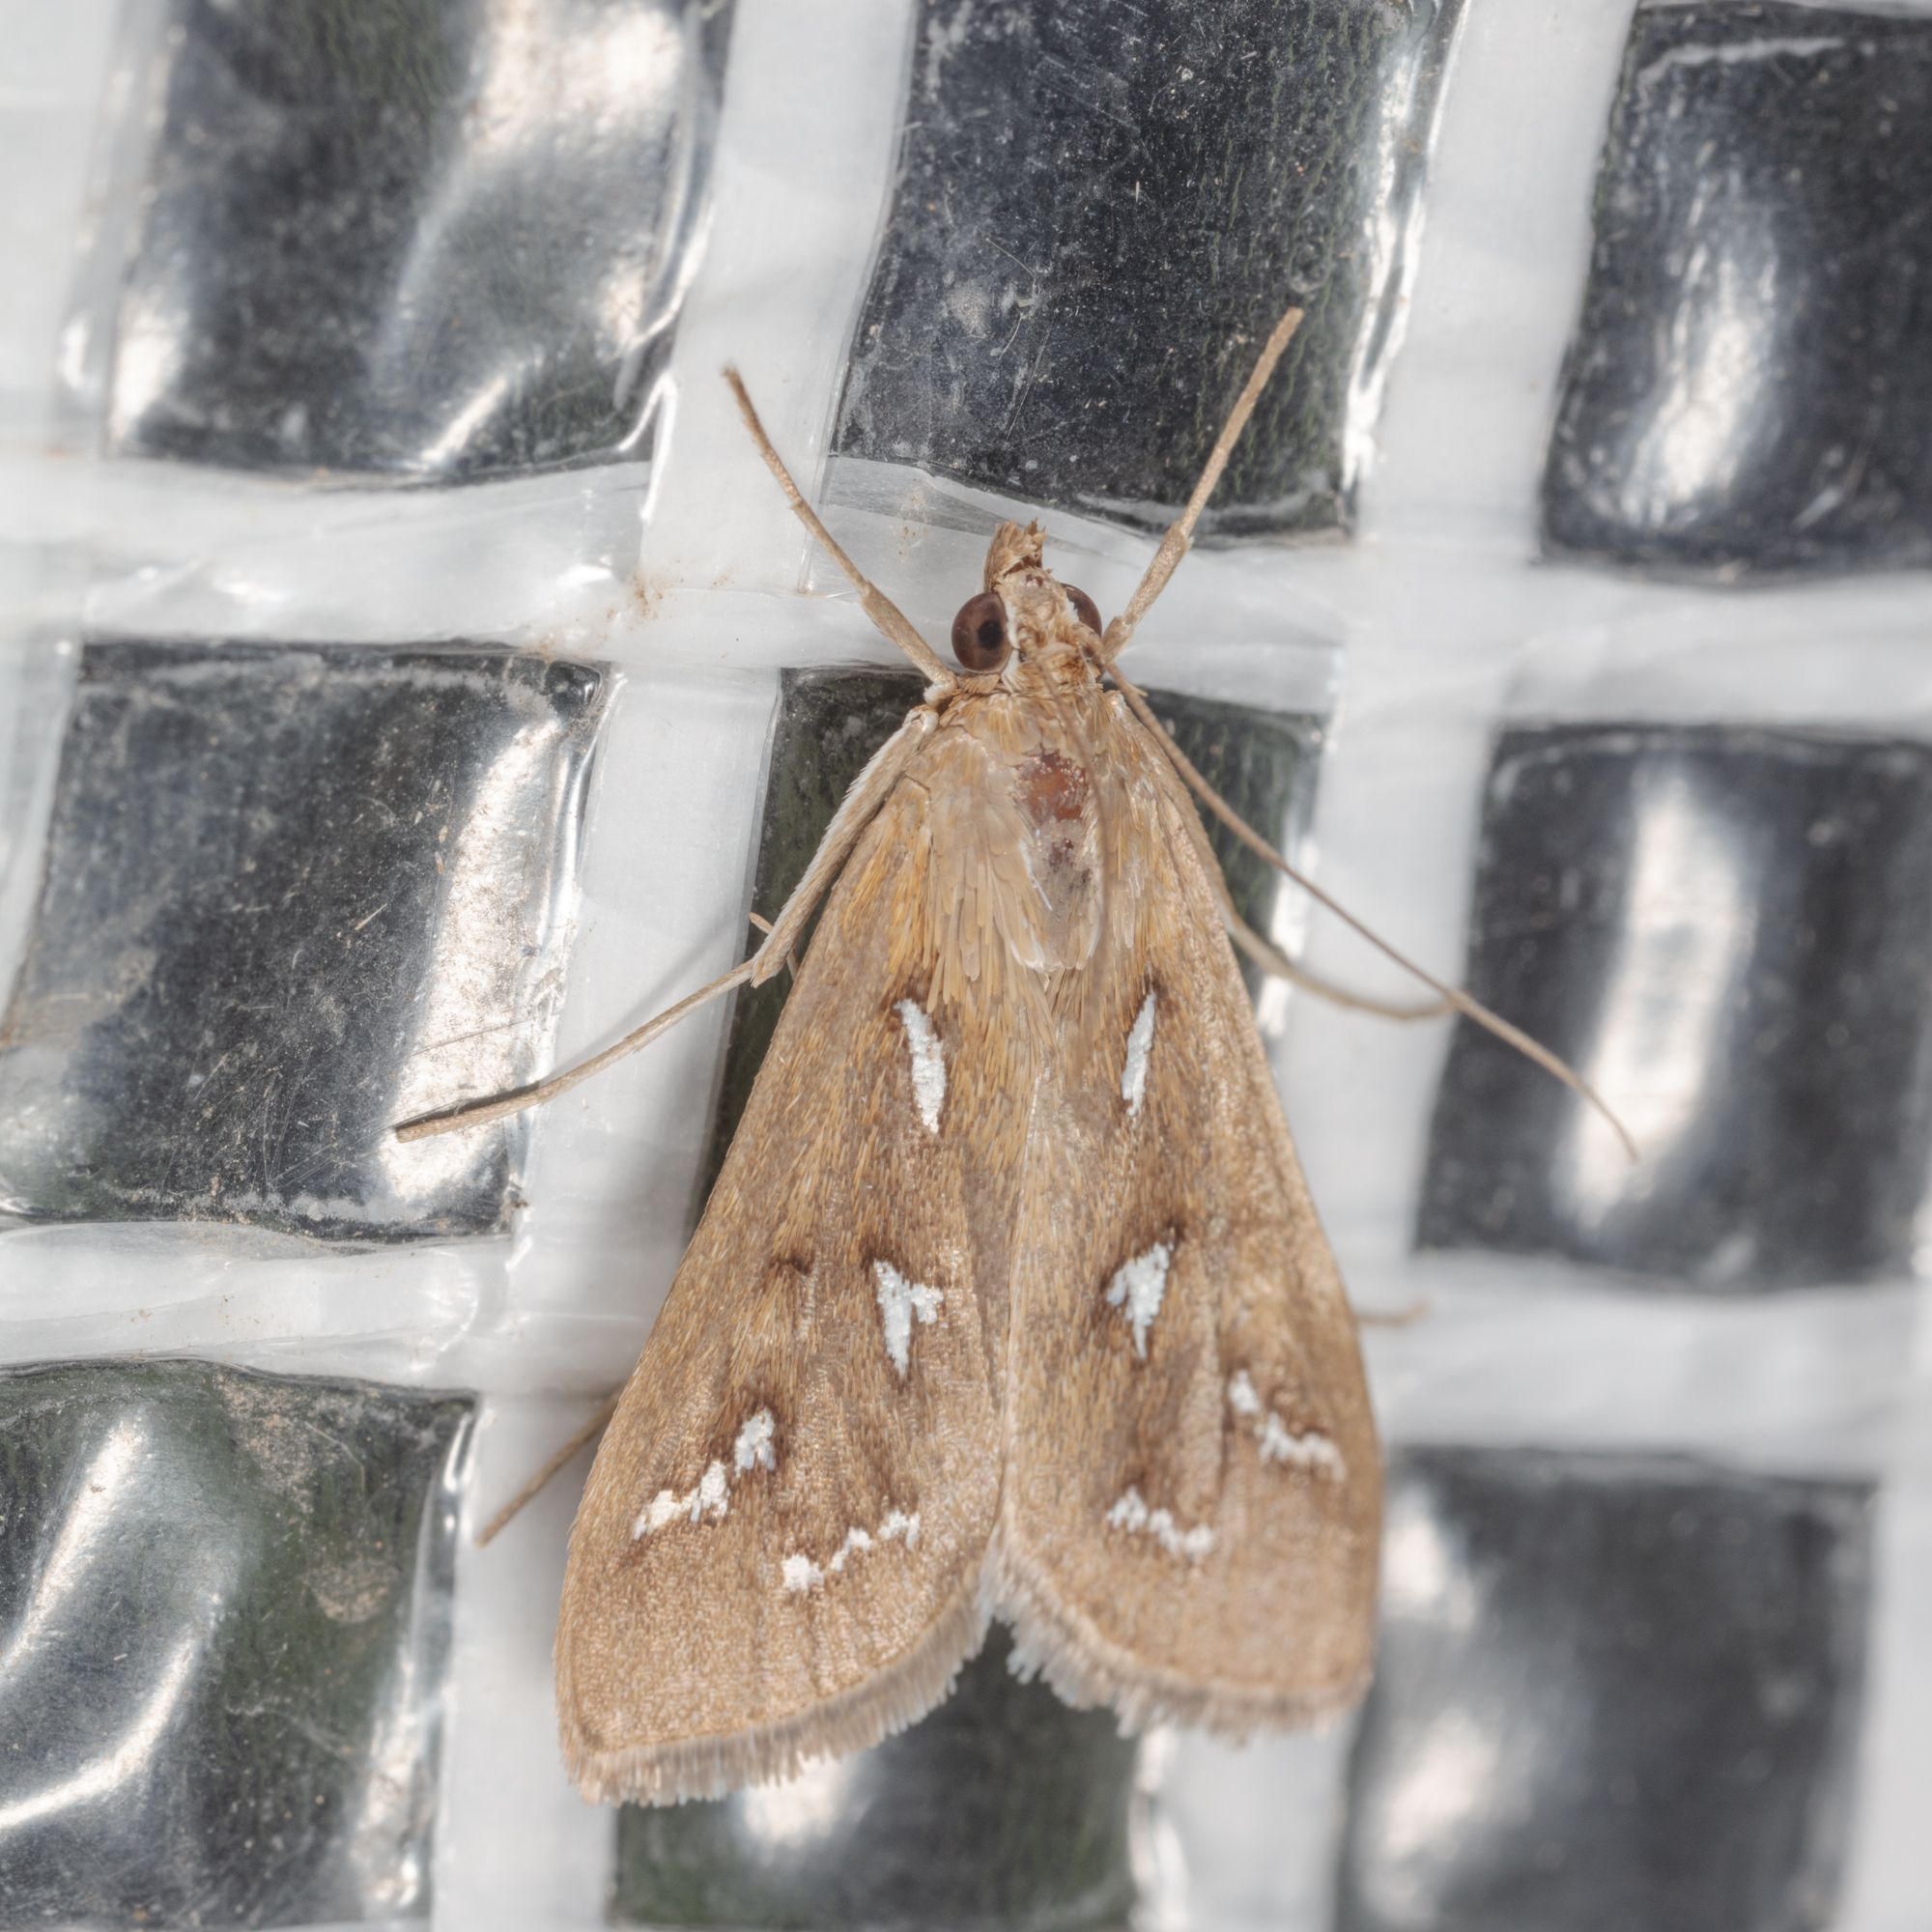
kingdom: Animalia
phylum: Arthropoda
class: Insecta
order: Lepidoptera
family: Crambidae
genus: Diastictis
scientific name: Diastictis fracturalis
